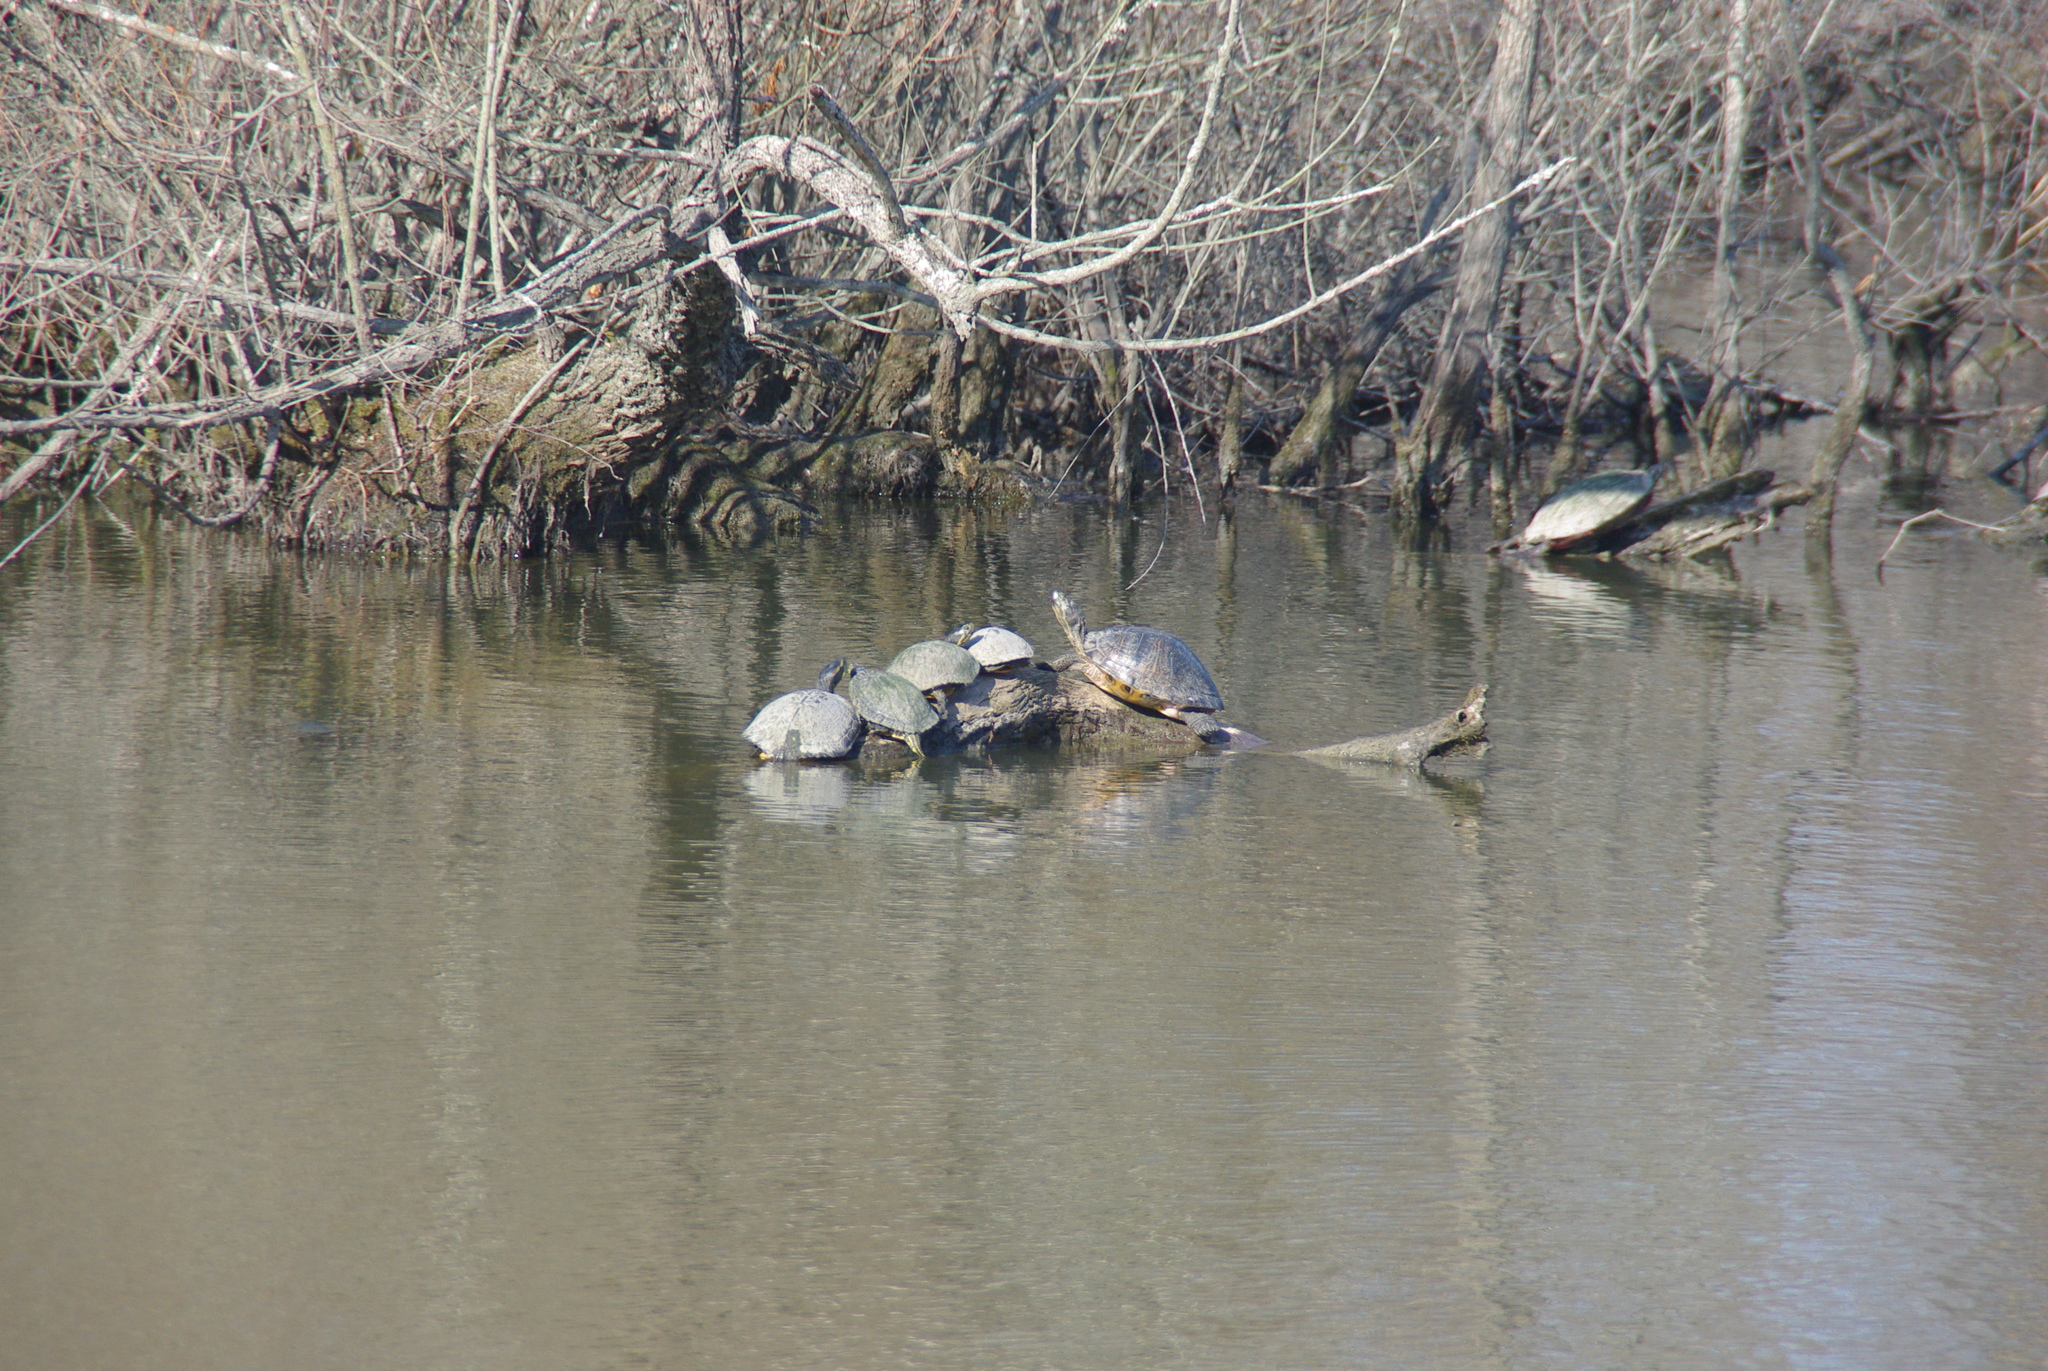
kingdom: Animalia
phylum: Chordata
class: Testudines
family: Emydidae
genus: Trachemys
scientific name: Trachemys scripta
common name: Slider
